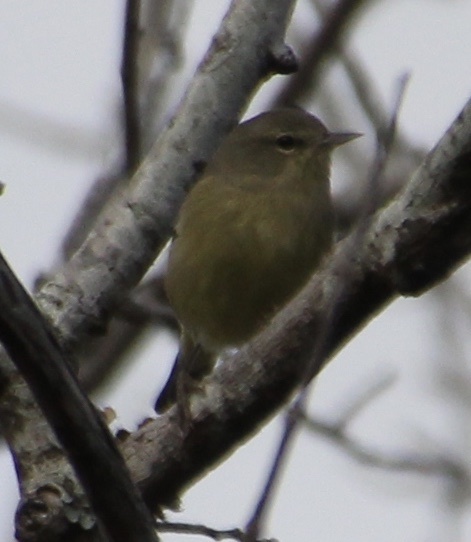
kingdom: Animalia
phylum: Chordata
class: Aves
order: Passeriformes
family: Parulidae
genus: Leiothlypis
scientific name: Leiothlypis celata
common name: Orange-crowned warbler
